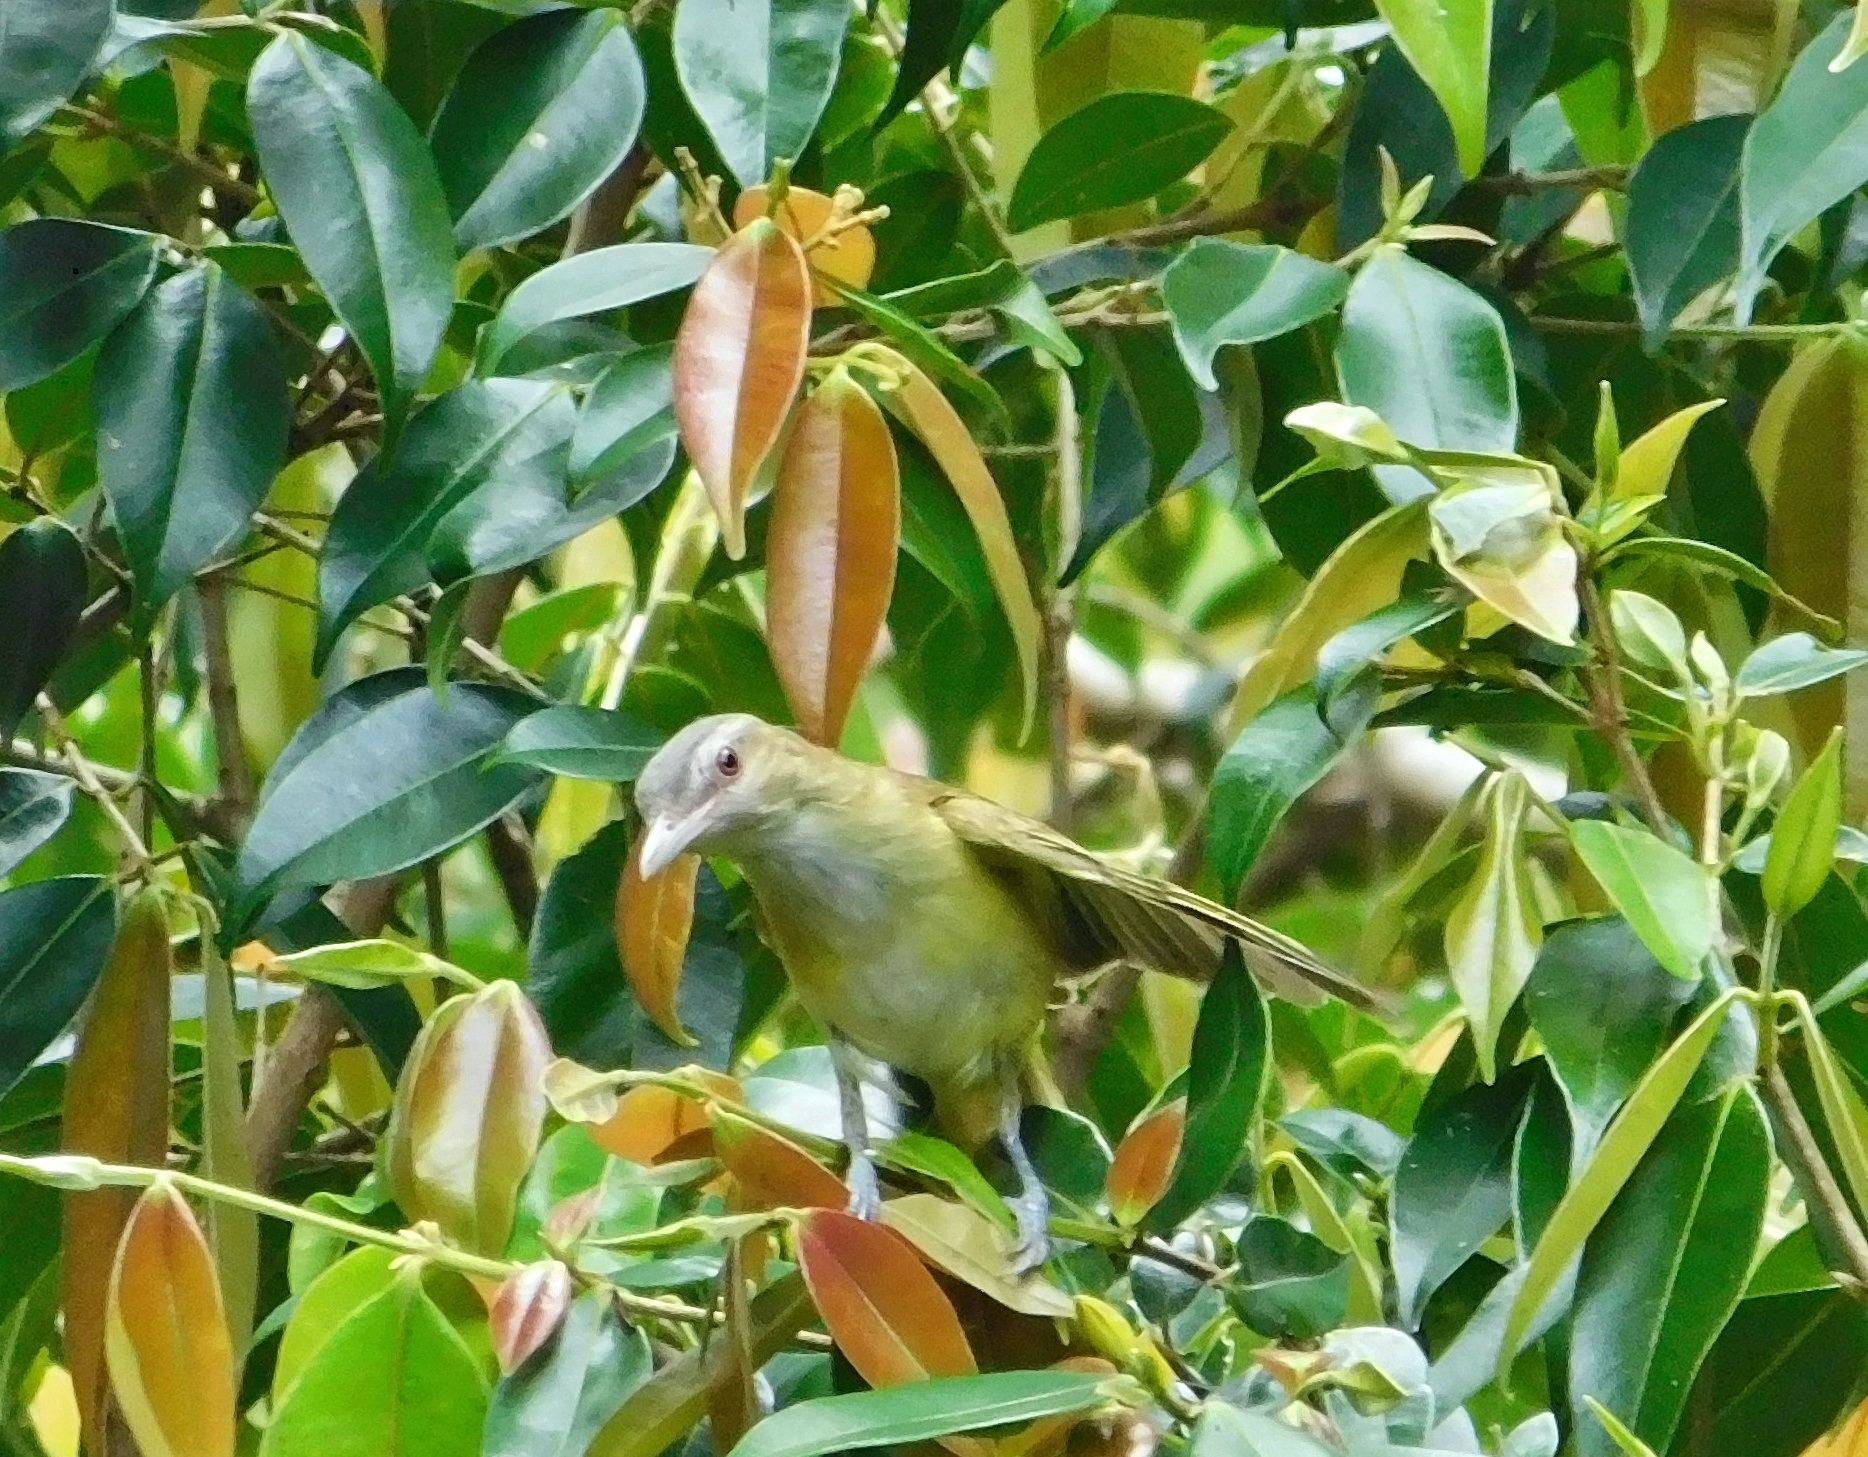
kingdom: Animalia
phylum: Chordata
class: Aves
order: Passeriformes
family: Vireonidae
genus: Vireo
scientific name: Vireo flavoviridis
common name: Yellow-green vireo
